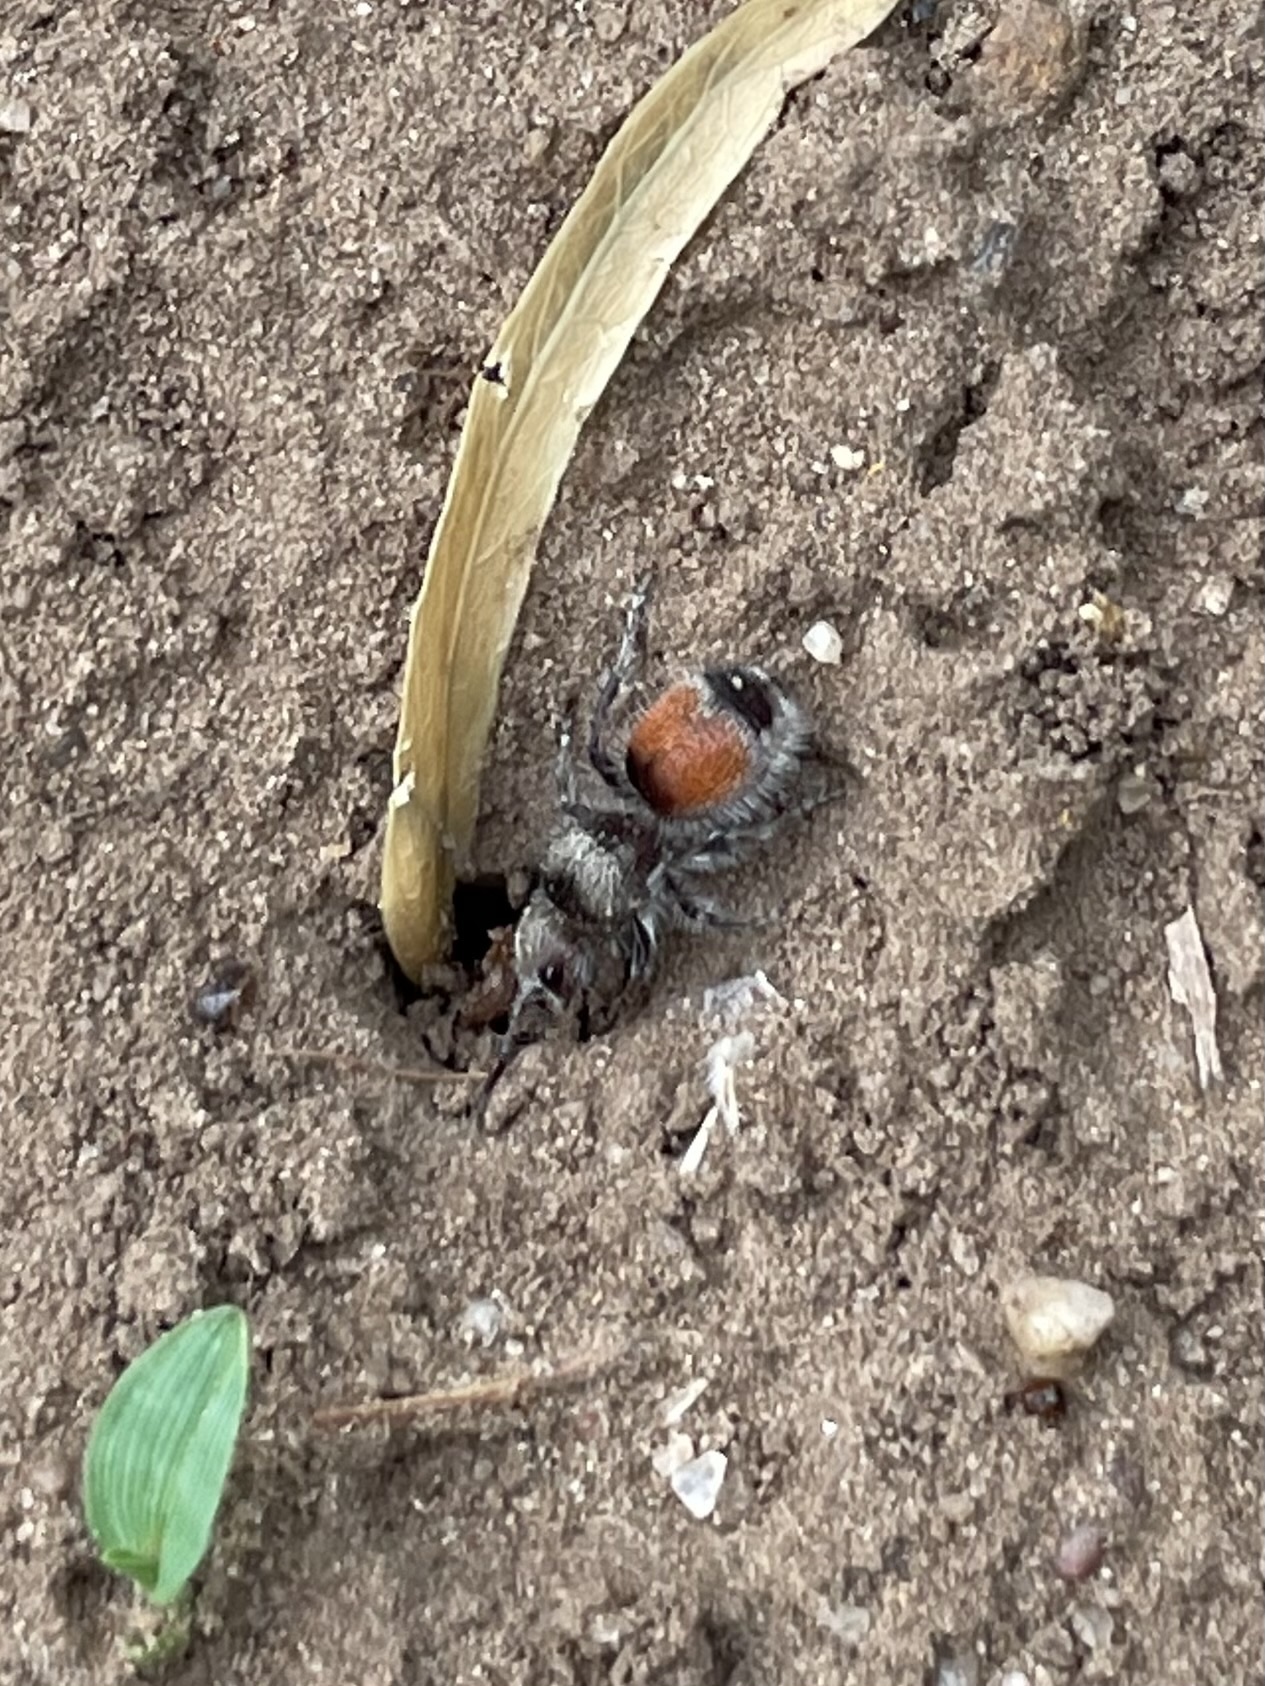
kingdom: Animalia
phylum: Arthropoda
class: Insecta
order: Hymenoptera
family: Mutillidae
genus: Dasymutilla
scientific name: Dasymutilla foxi
